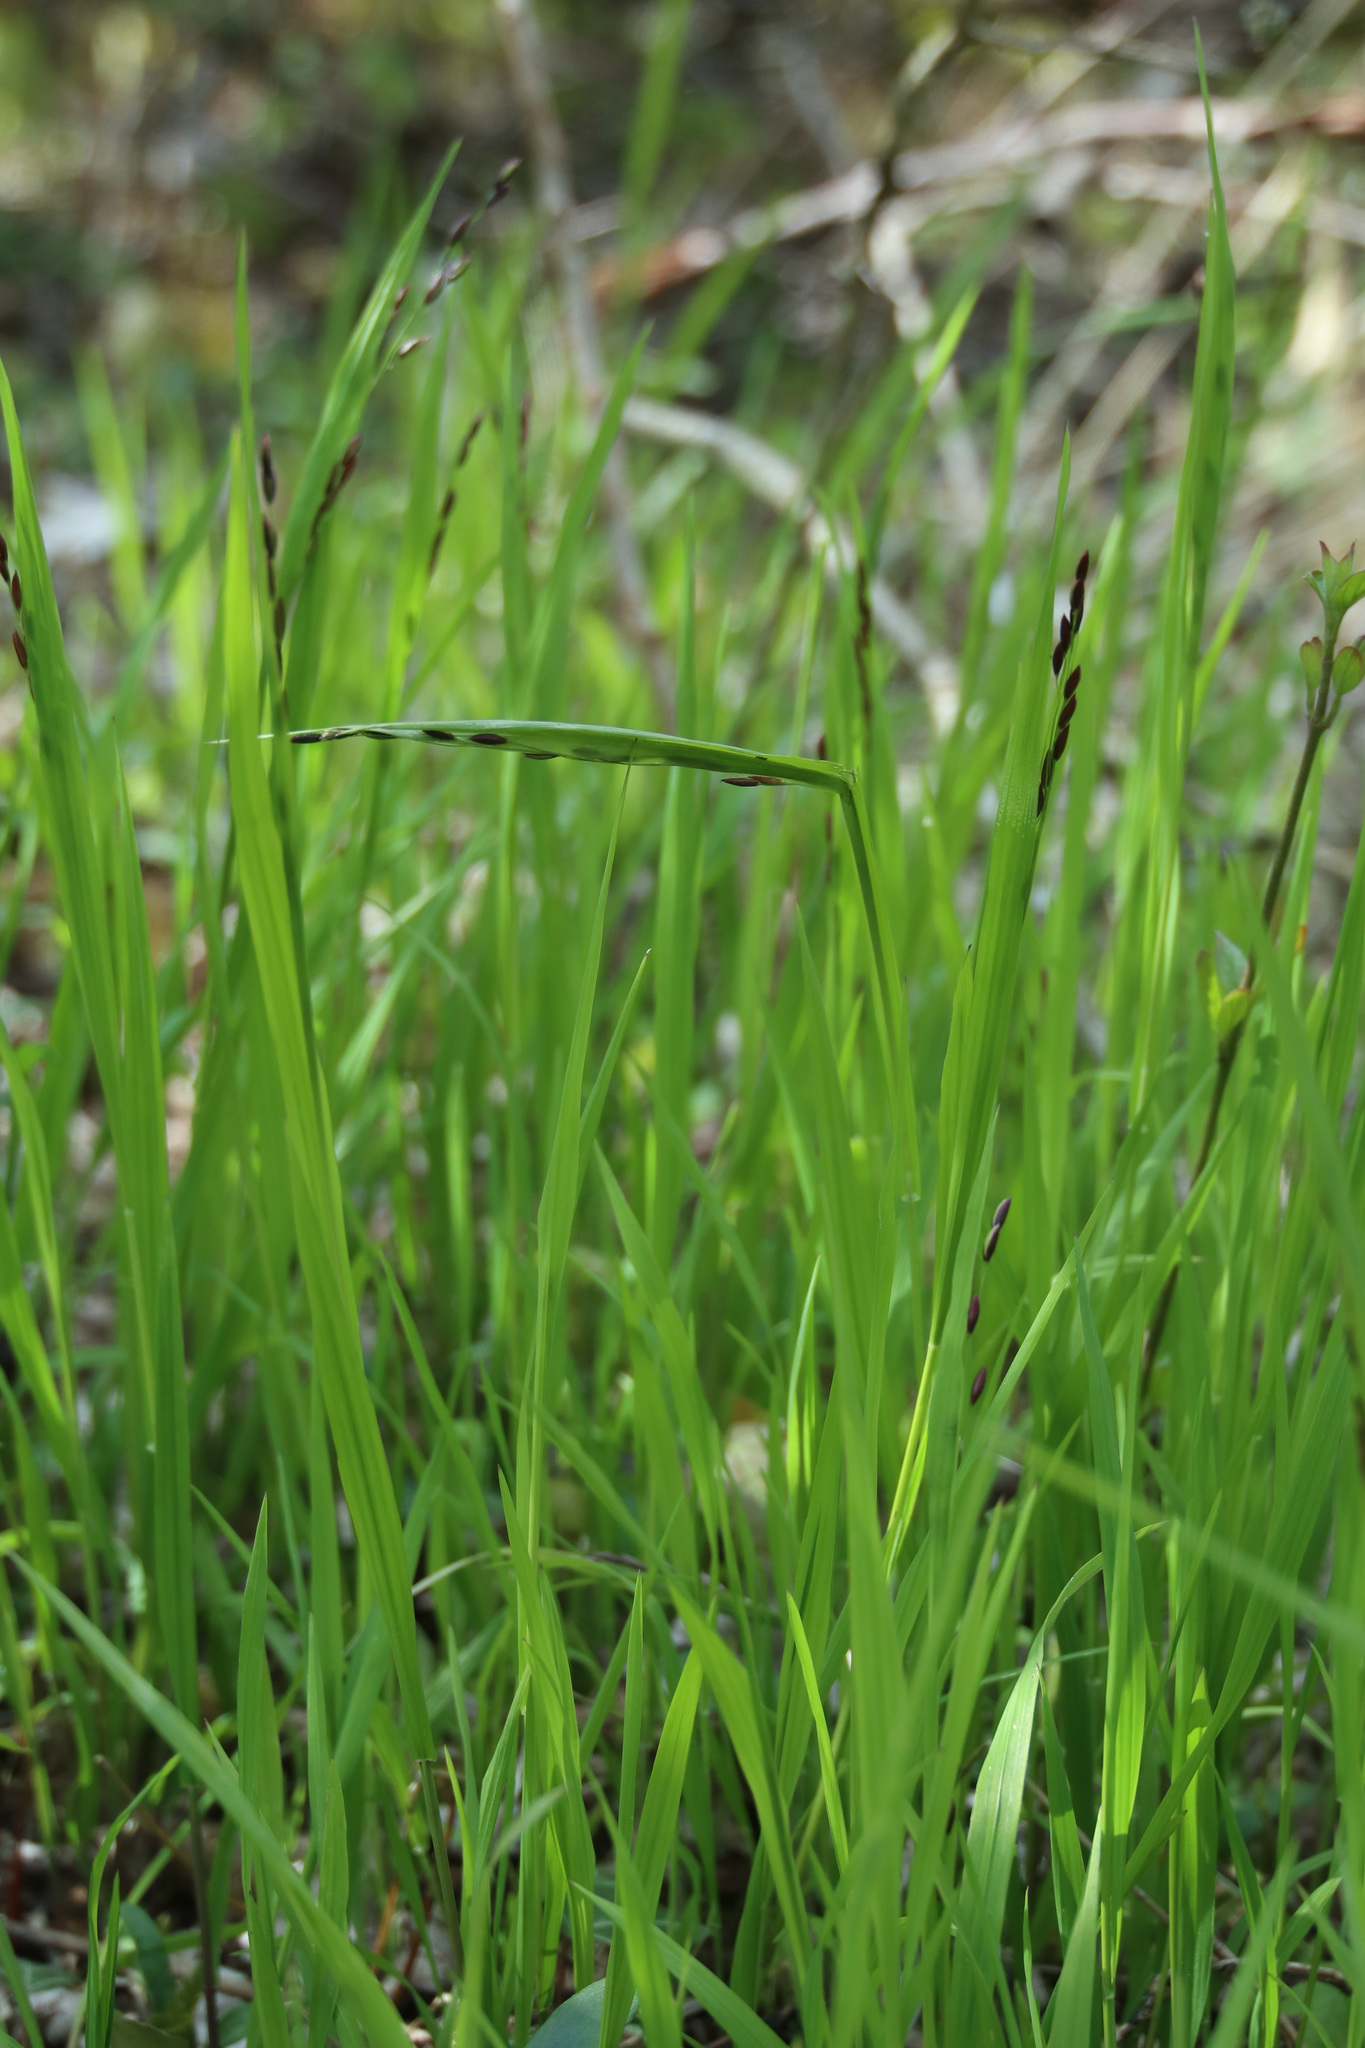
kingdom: Plantae
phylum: Tracheophyta
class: Liliopsida
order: Poales
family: Poaceae
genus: Melica
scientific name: Melica uniflora
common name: Wood melick
